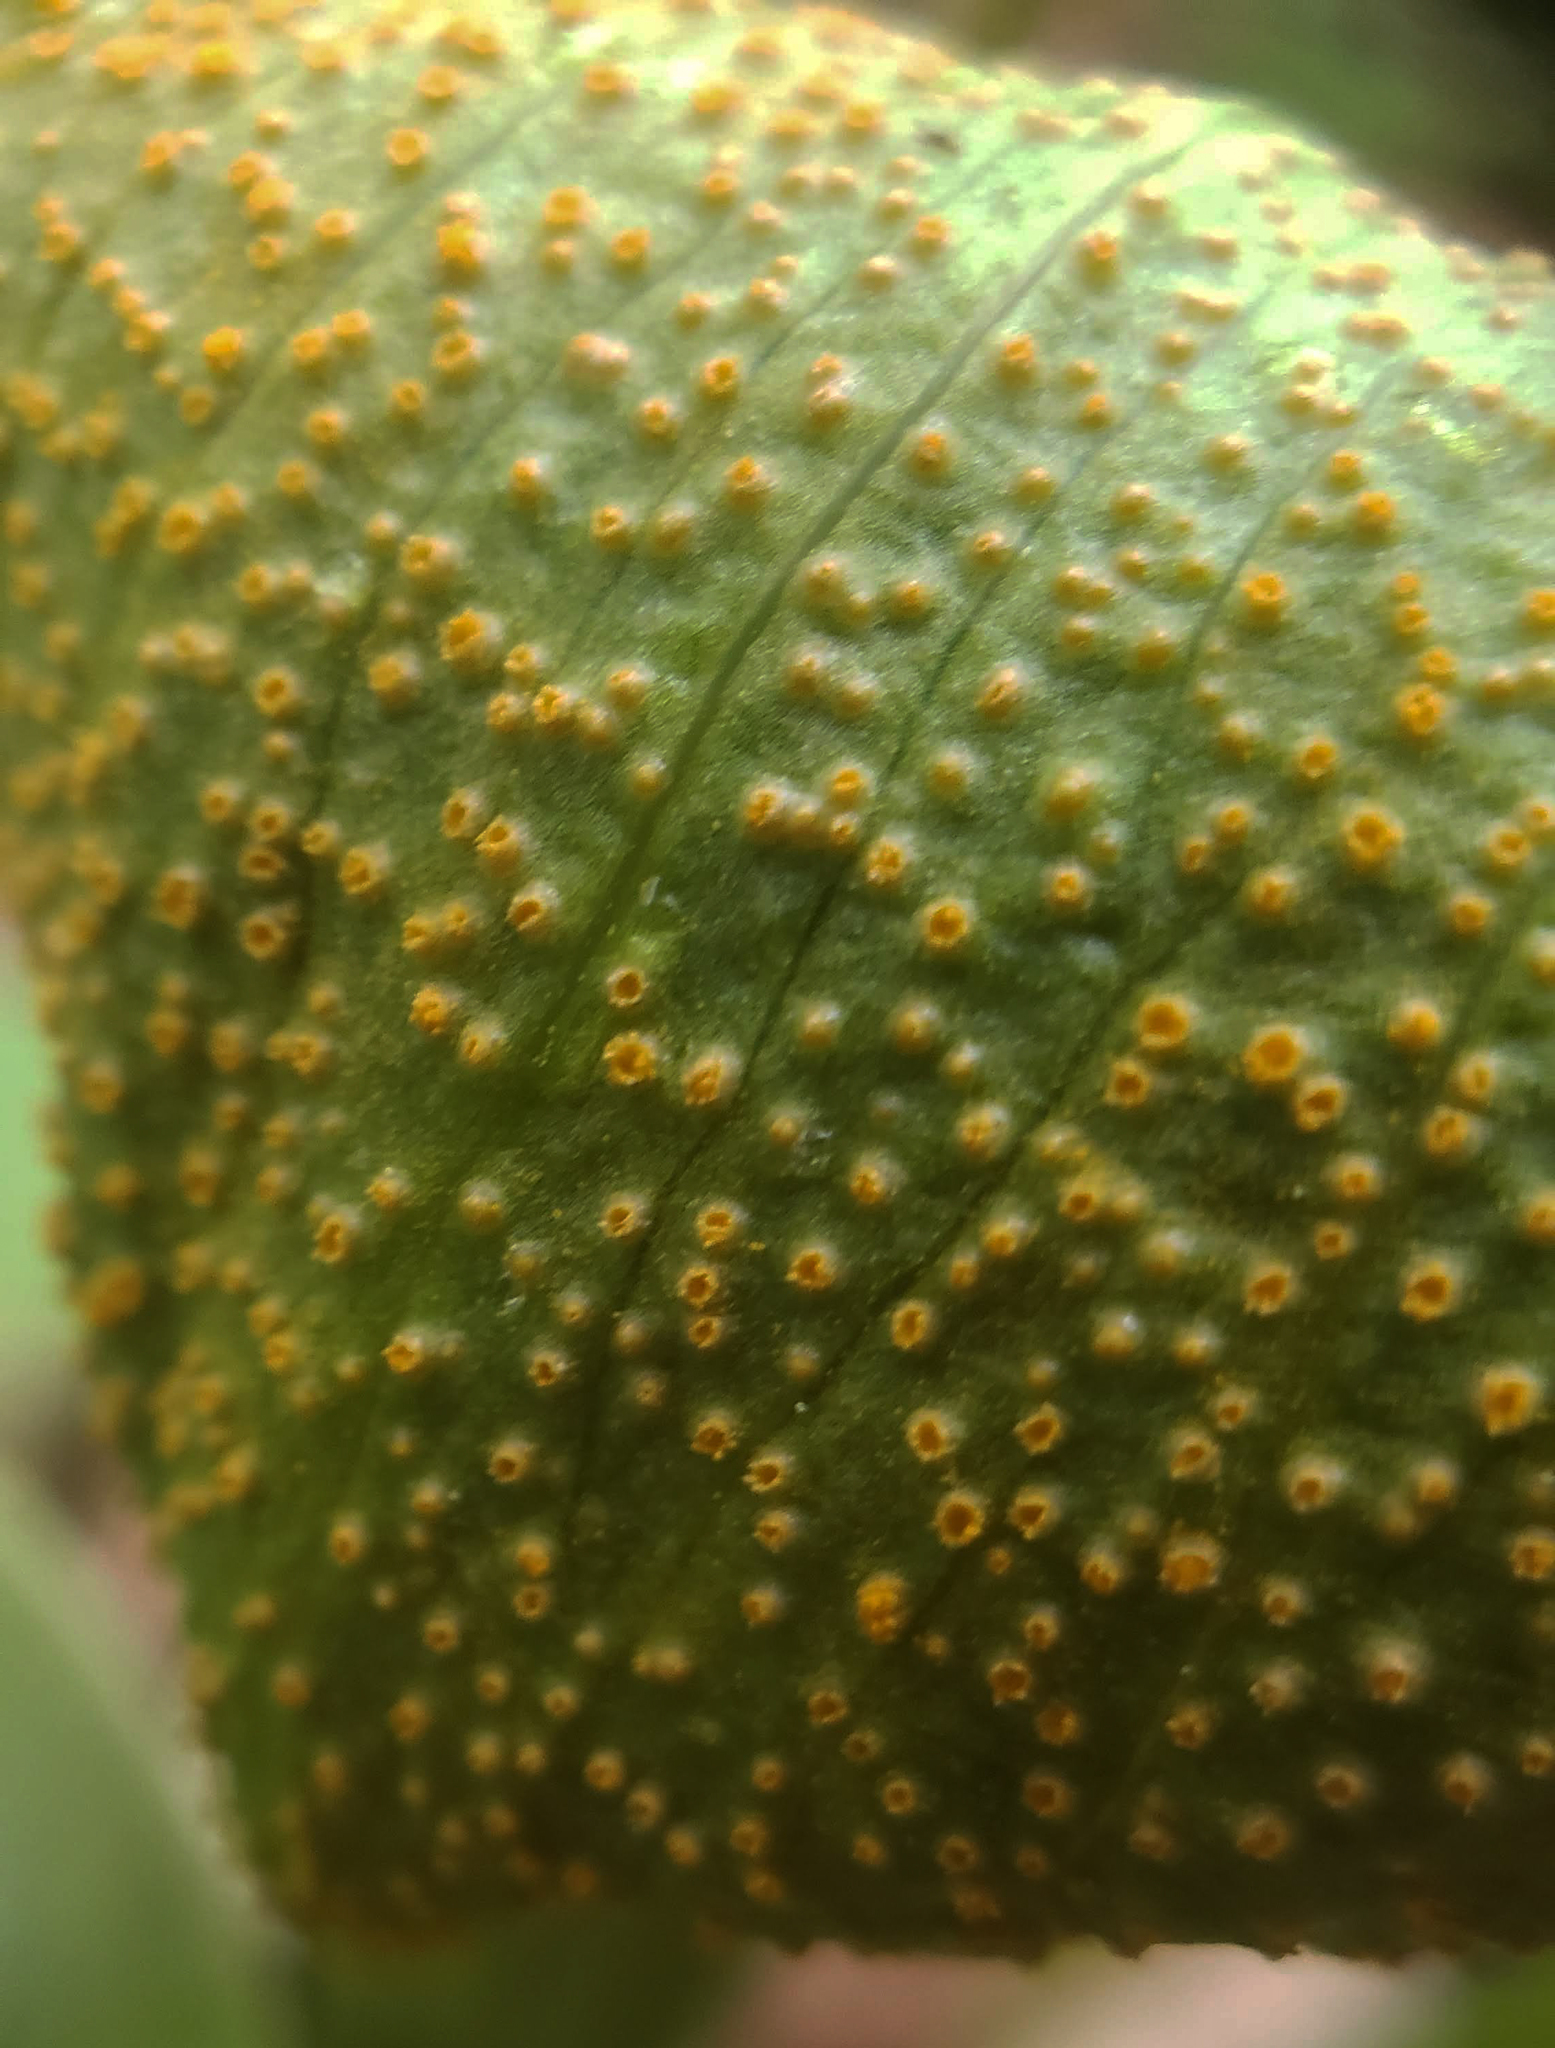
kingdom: Fungi
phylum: Basidiomycota
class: Pucciniomycetes
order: Pucciniales
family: Pucciniaceae
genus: Uromyces
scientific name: Uromyces ari-triphylli
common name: Jack-in-the-pulpit rust
